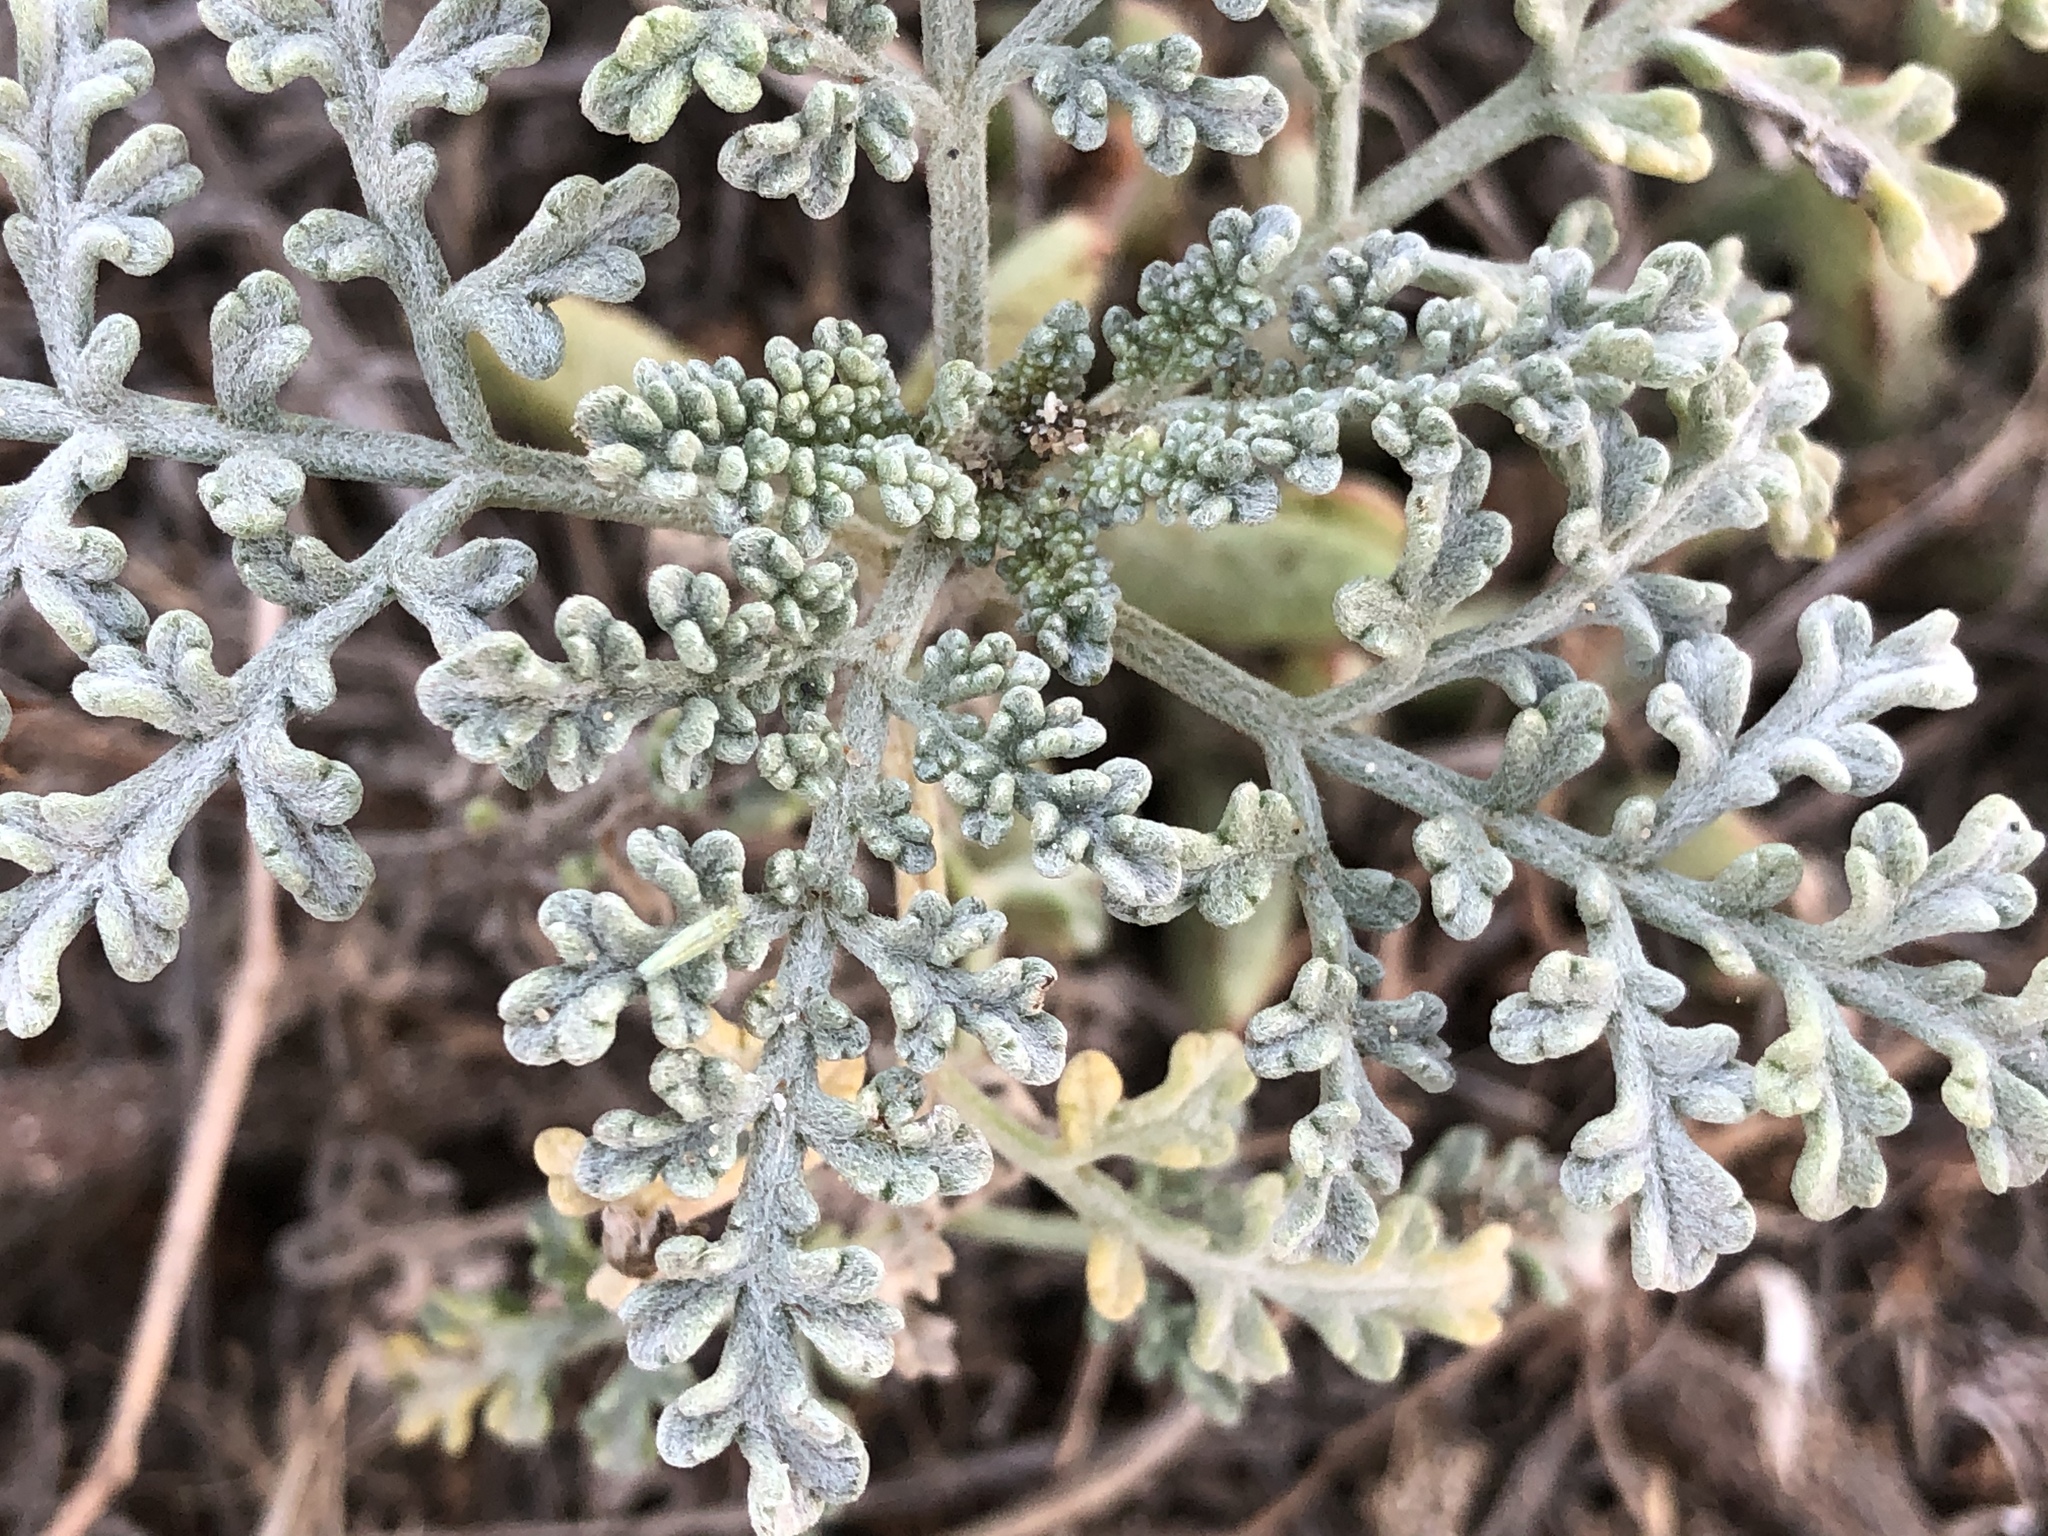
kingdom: Plantae
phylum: Tracheophyta
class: Magnoliopsida
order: Asterales
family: Asteraceae
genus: Ambrosia
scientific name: Ambrosia chamissonis
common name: Beachbur
